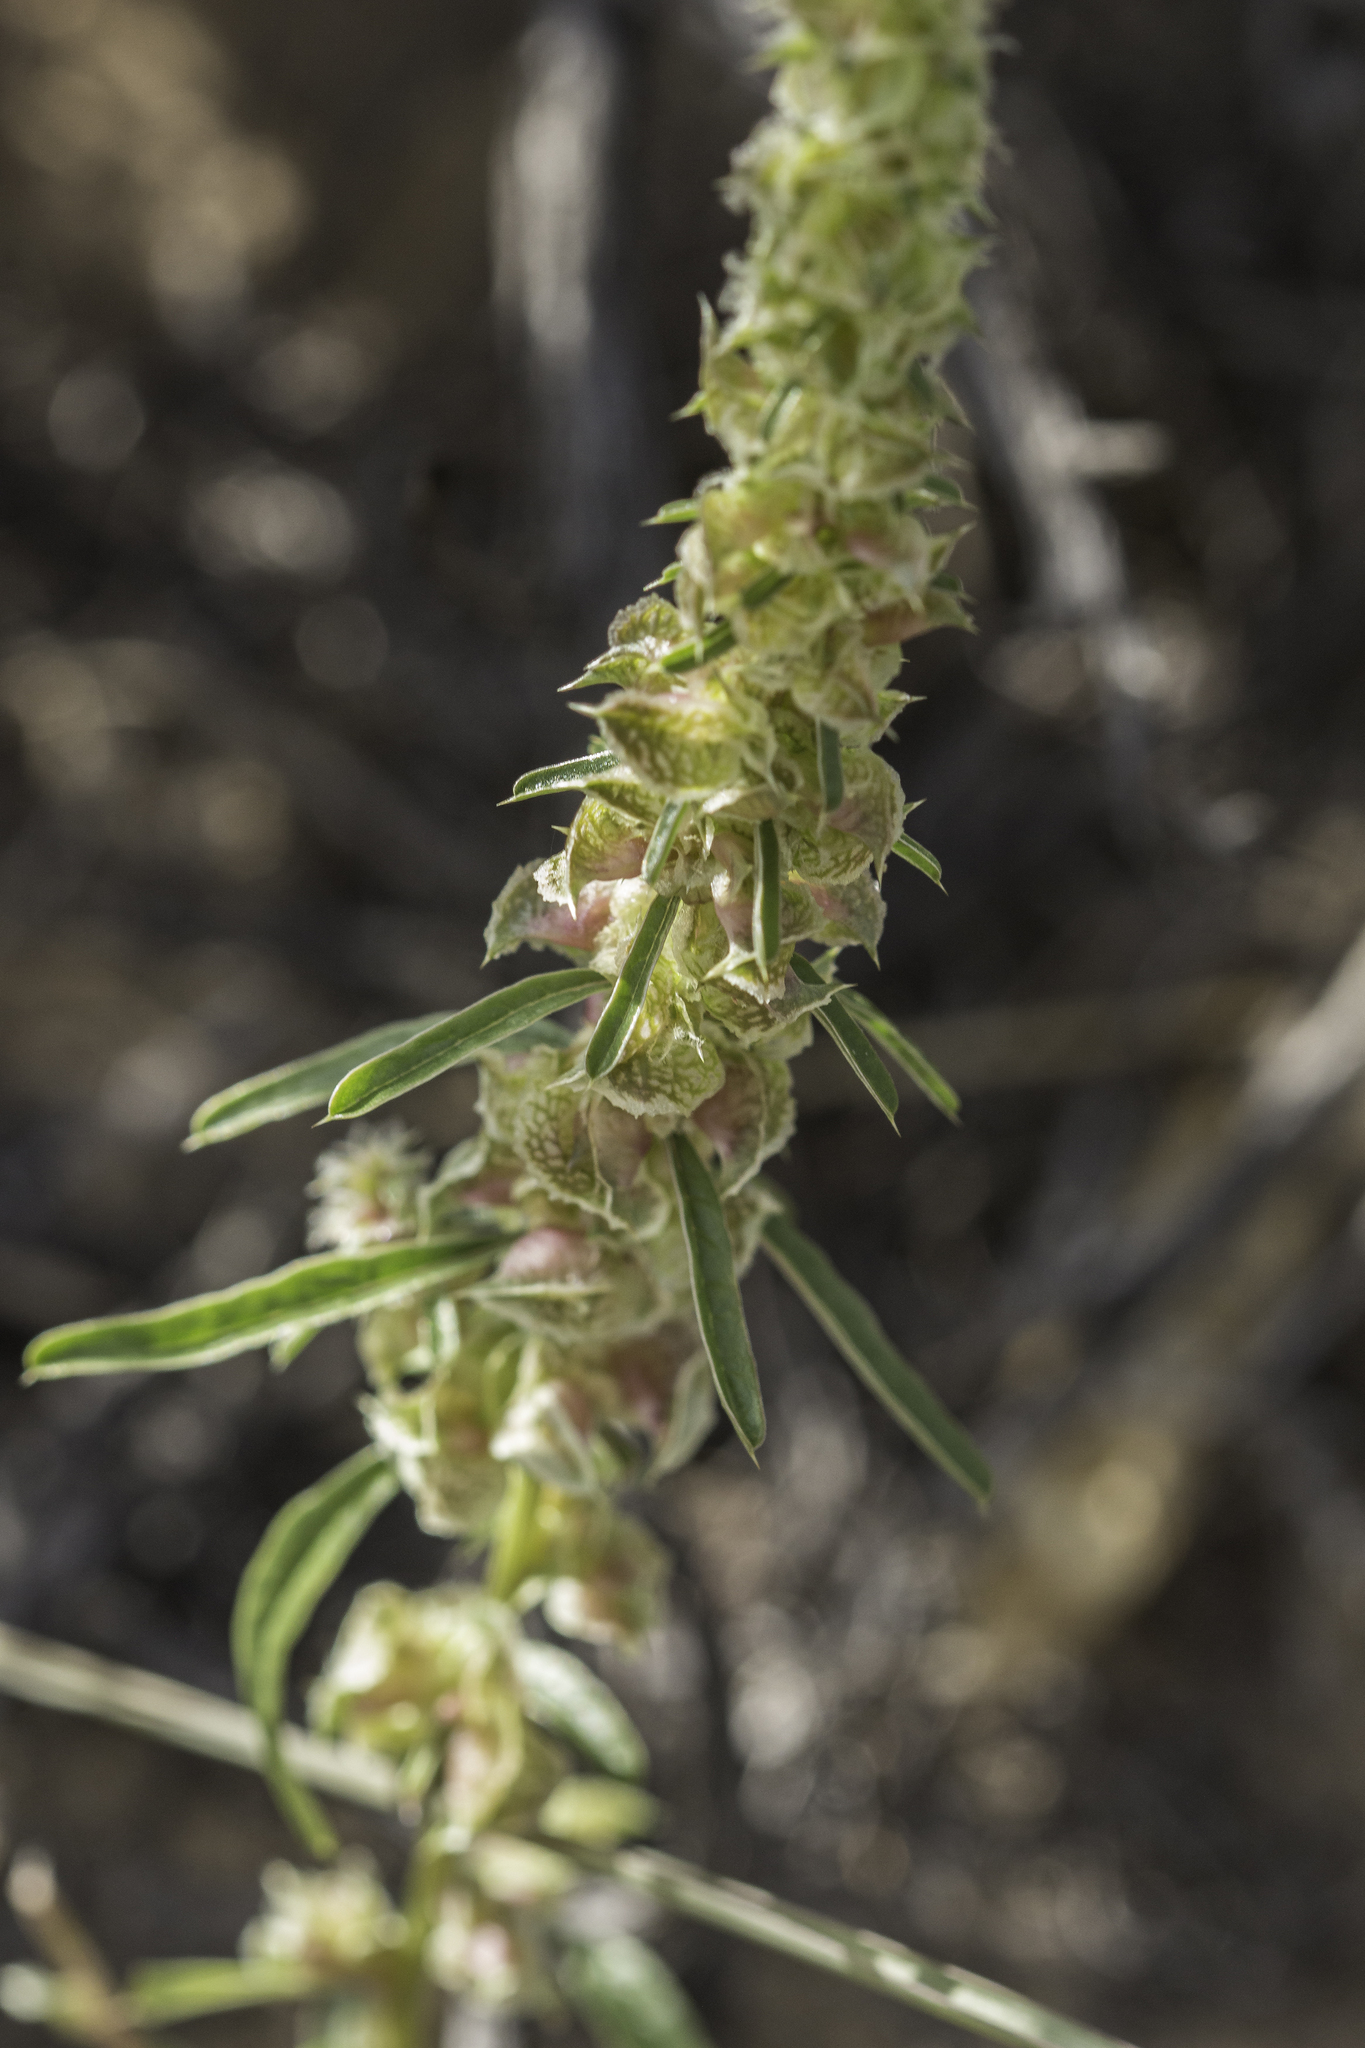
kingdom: Plantae
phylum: Tracheophyta
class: Magnoliopsida
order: Caryophyllales
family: Amaranthaceae
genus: Amaranthus
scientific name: Amaranthus acanthochiton
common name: Greenstripe
